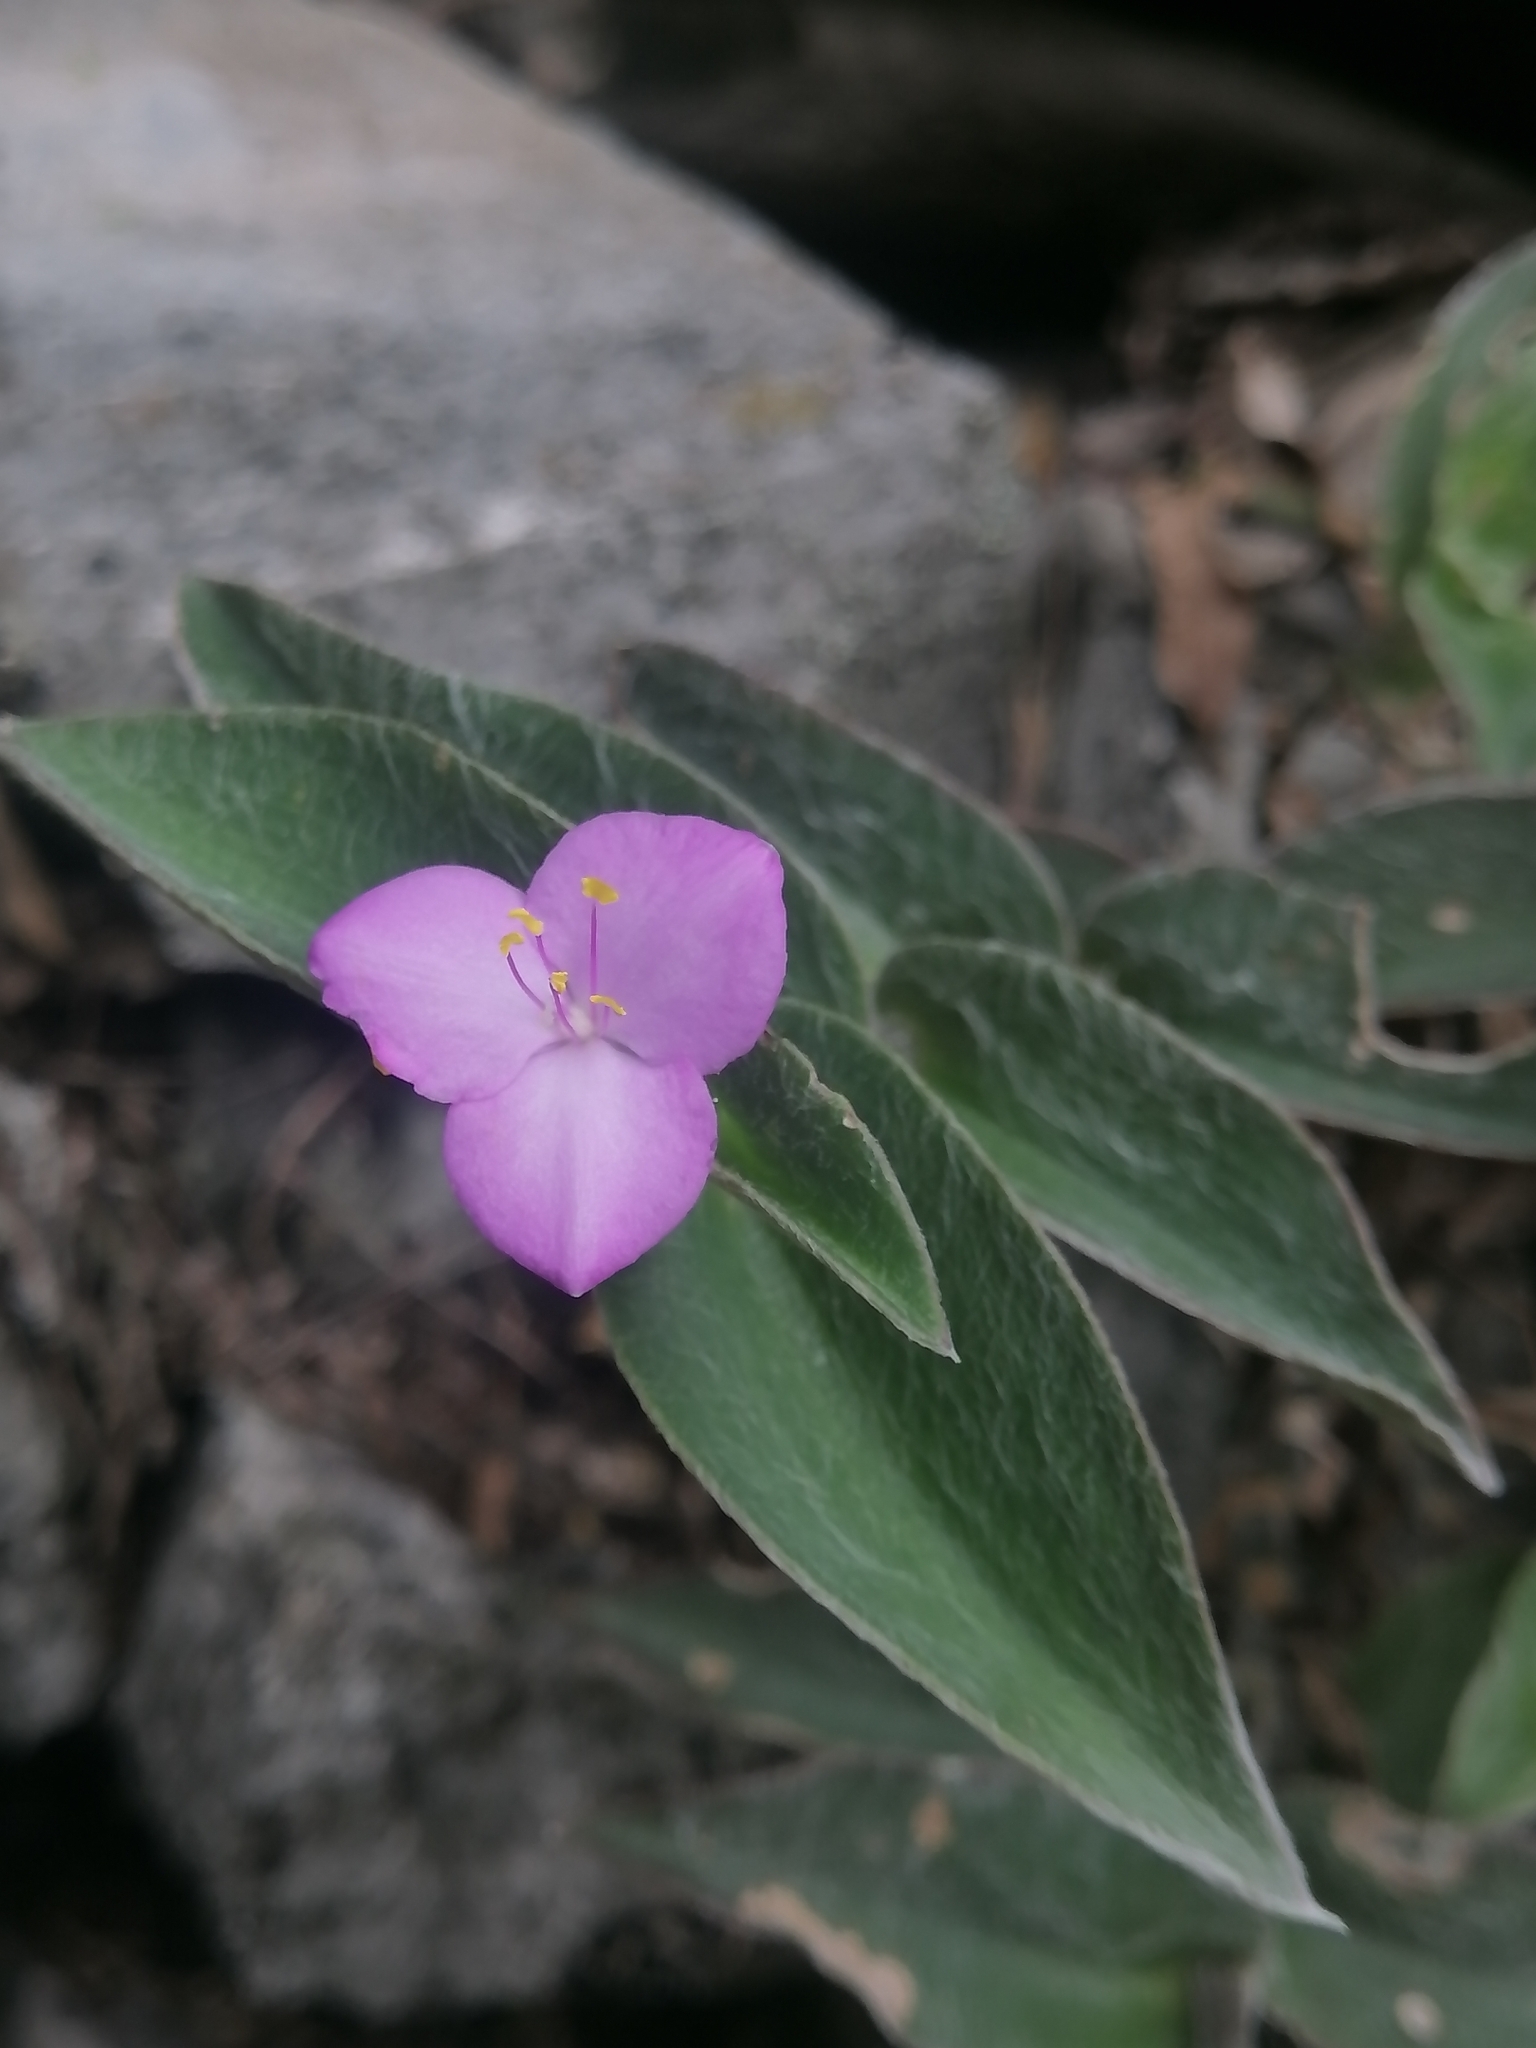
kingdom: Plantae
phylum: Tracheophyta
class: Liliopsida
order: Commelinales
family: Commelinaceae
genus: Tradescantia
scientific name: Tradescantia sillamontana
